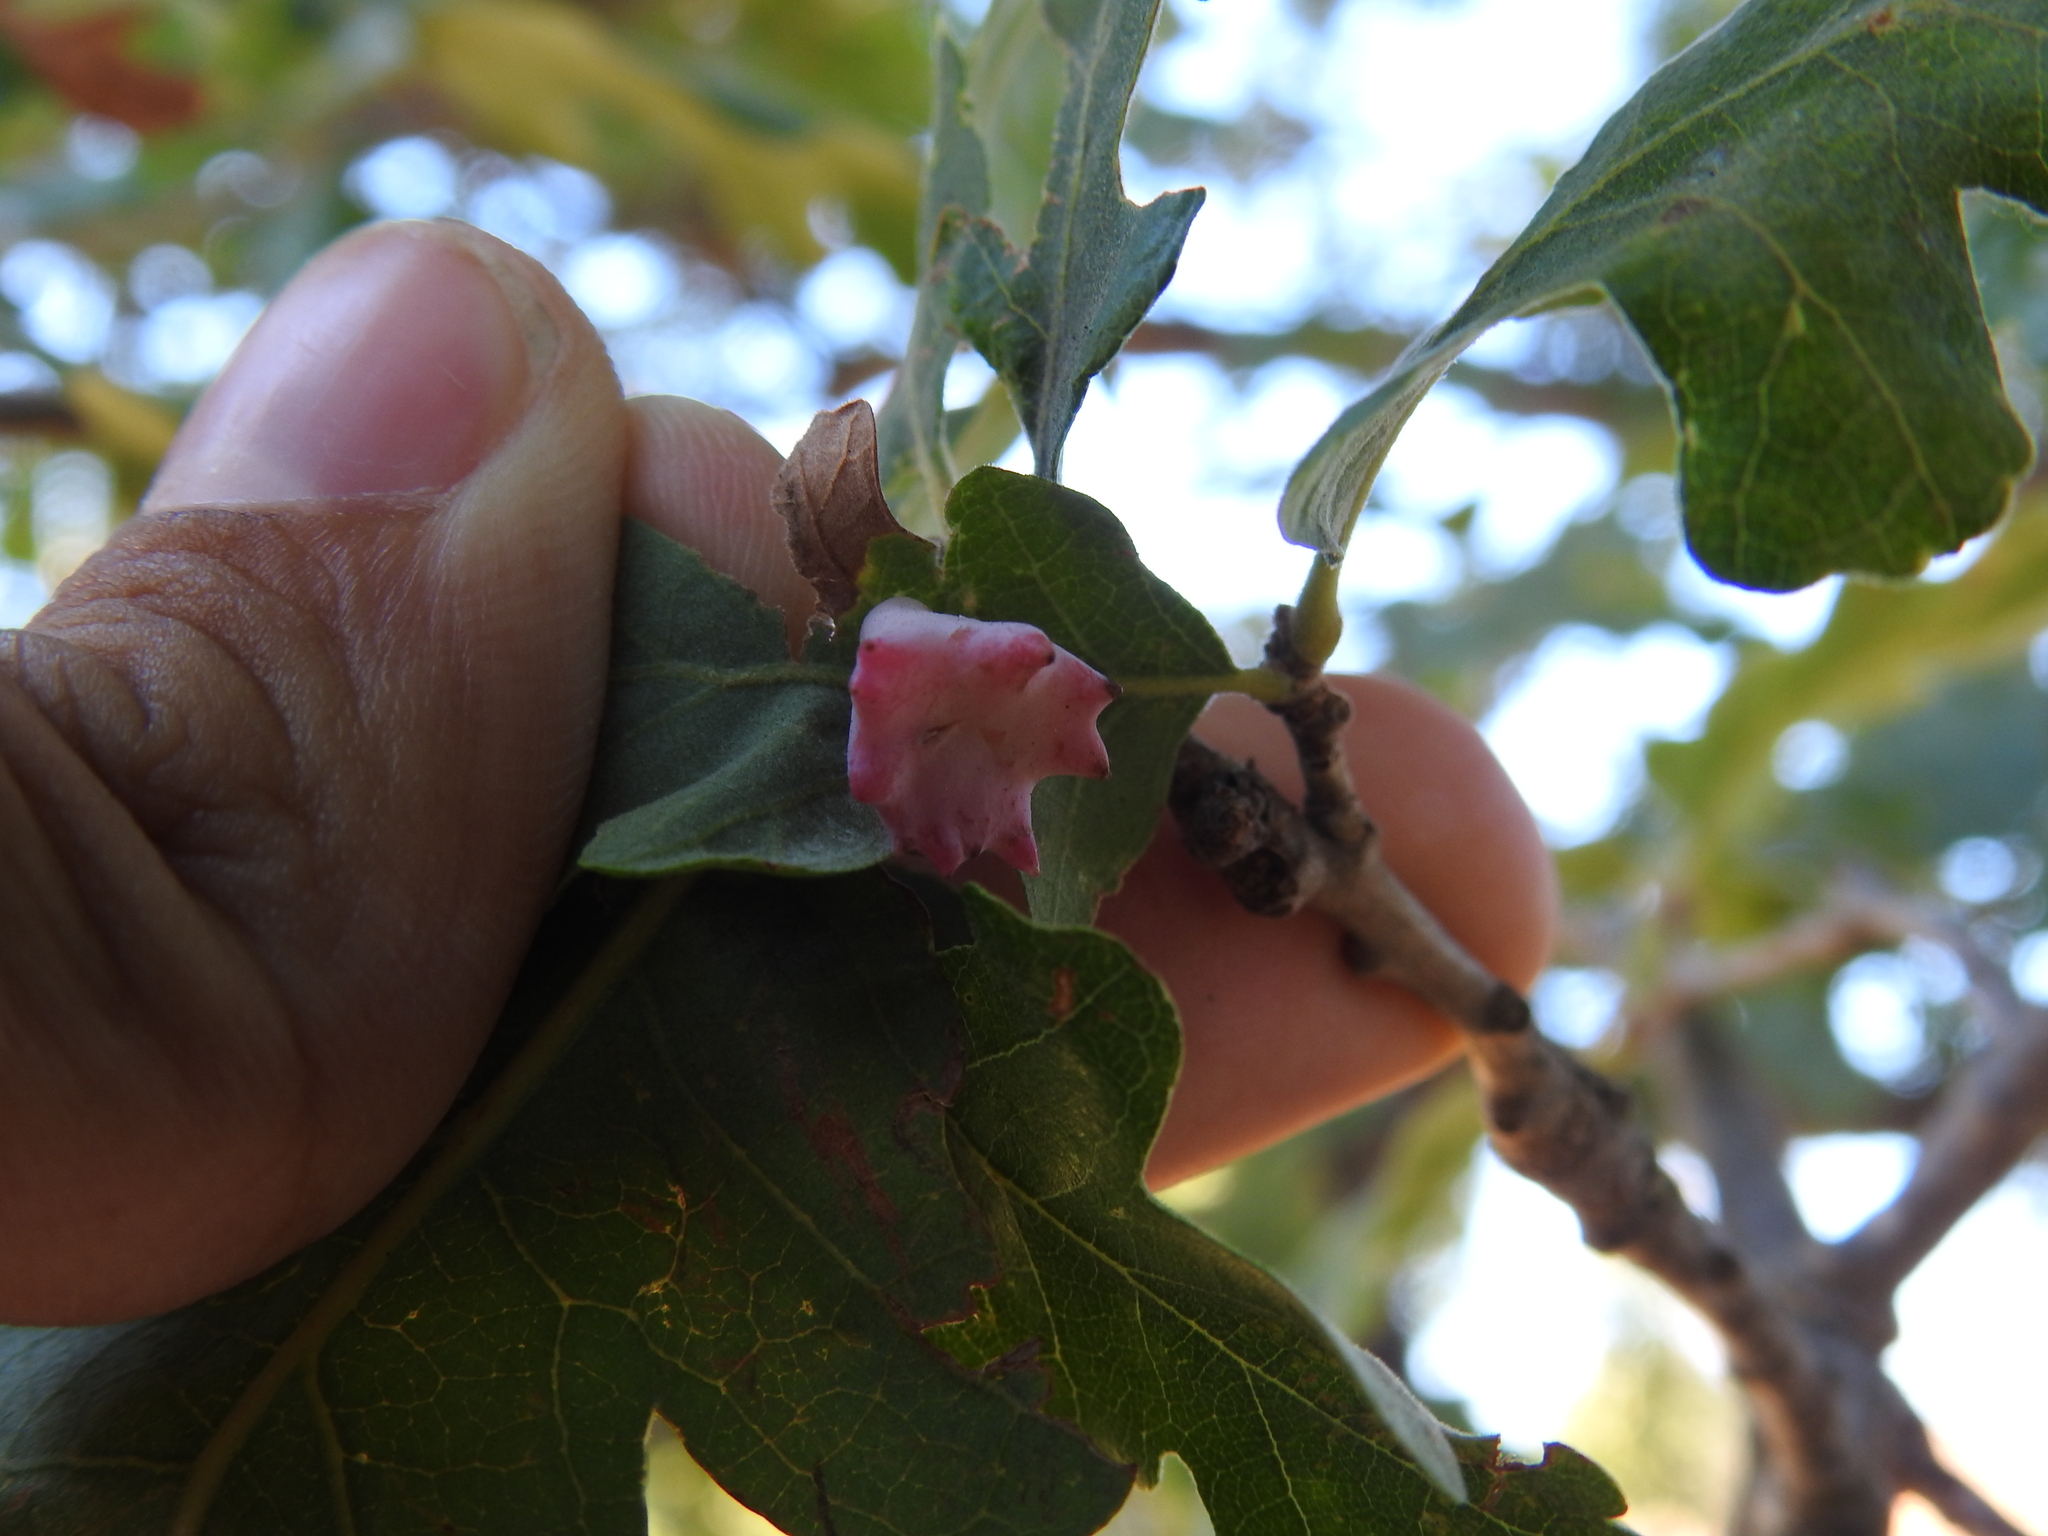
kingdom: Animalia
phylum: Arthropoda
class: Insecta
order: Hymenoptera
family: Cynipidae
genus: Cynips
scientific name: Cynips douglasi
